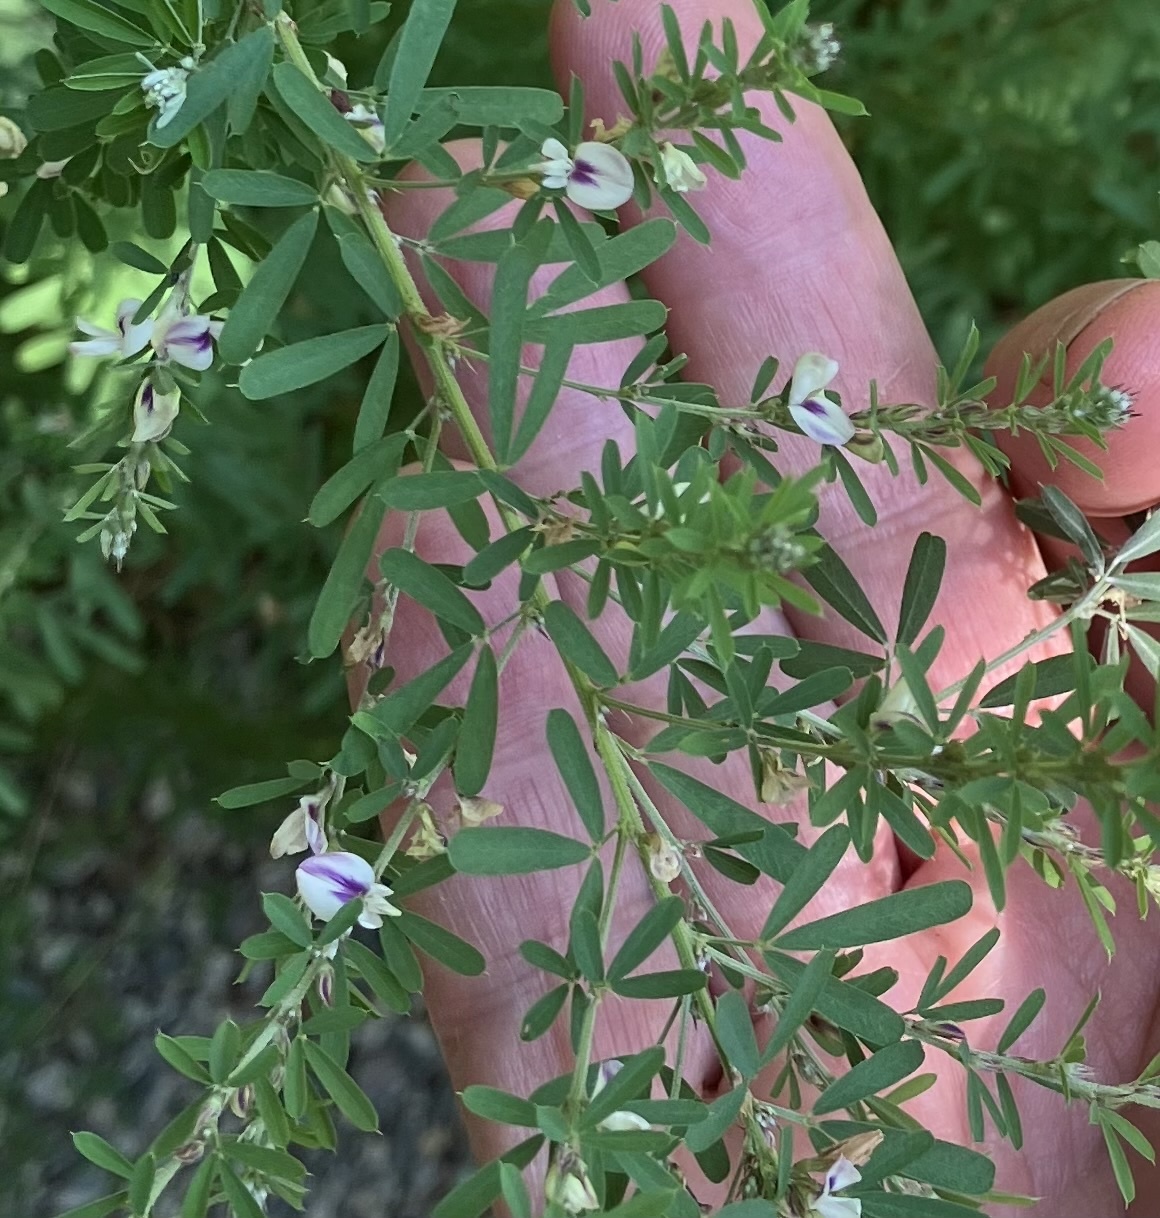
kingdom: Plantae
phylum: Tracheophyta
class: Magnoliopsida
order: Fabales
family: Fabaceae
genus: Lespedeza
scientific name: Lespedeza cuneata
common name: Chinese bush-clover
